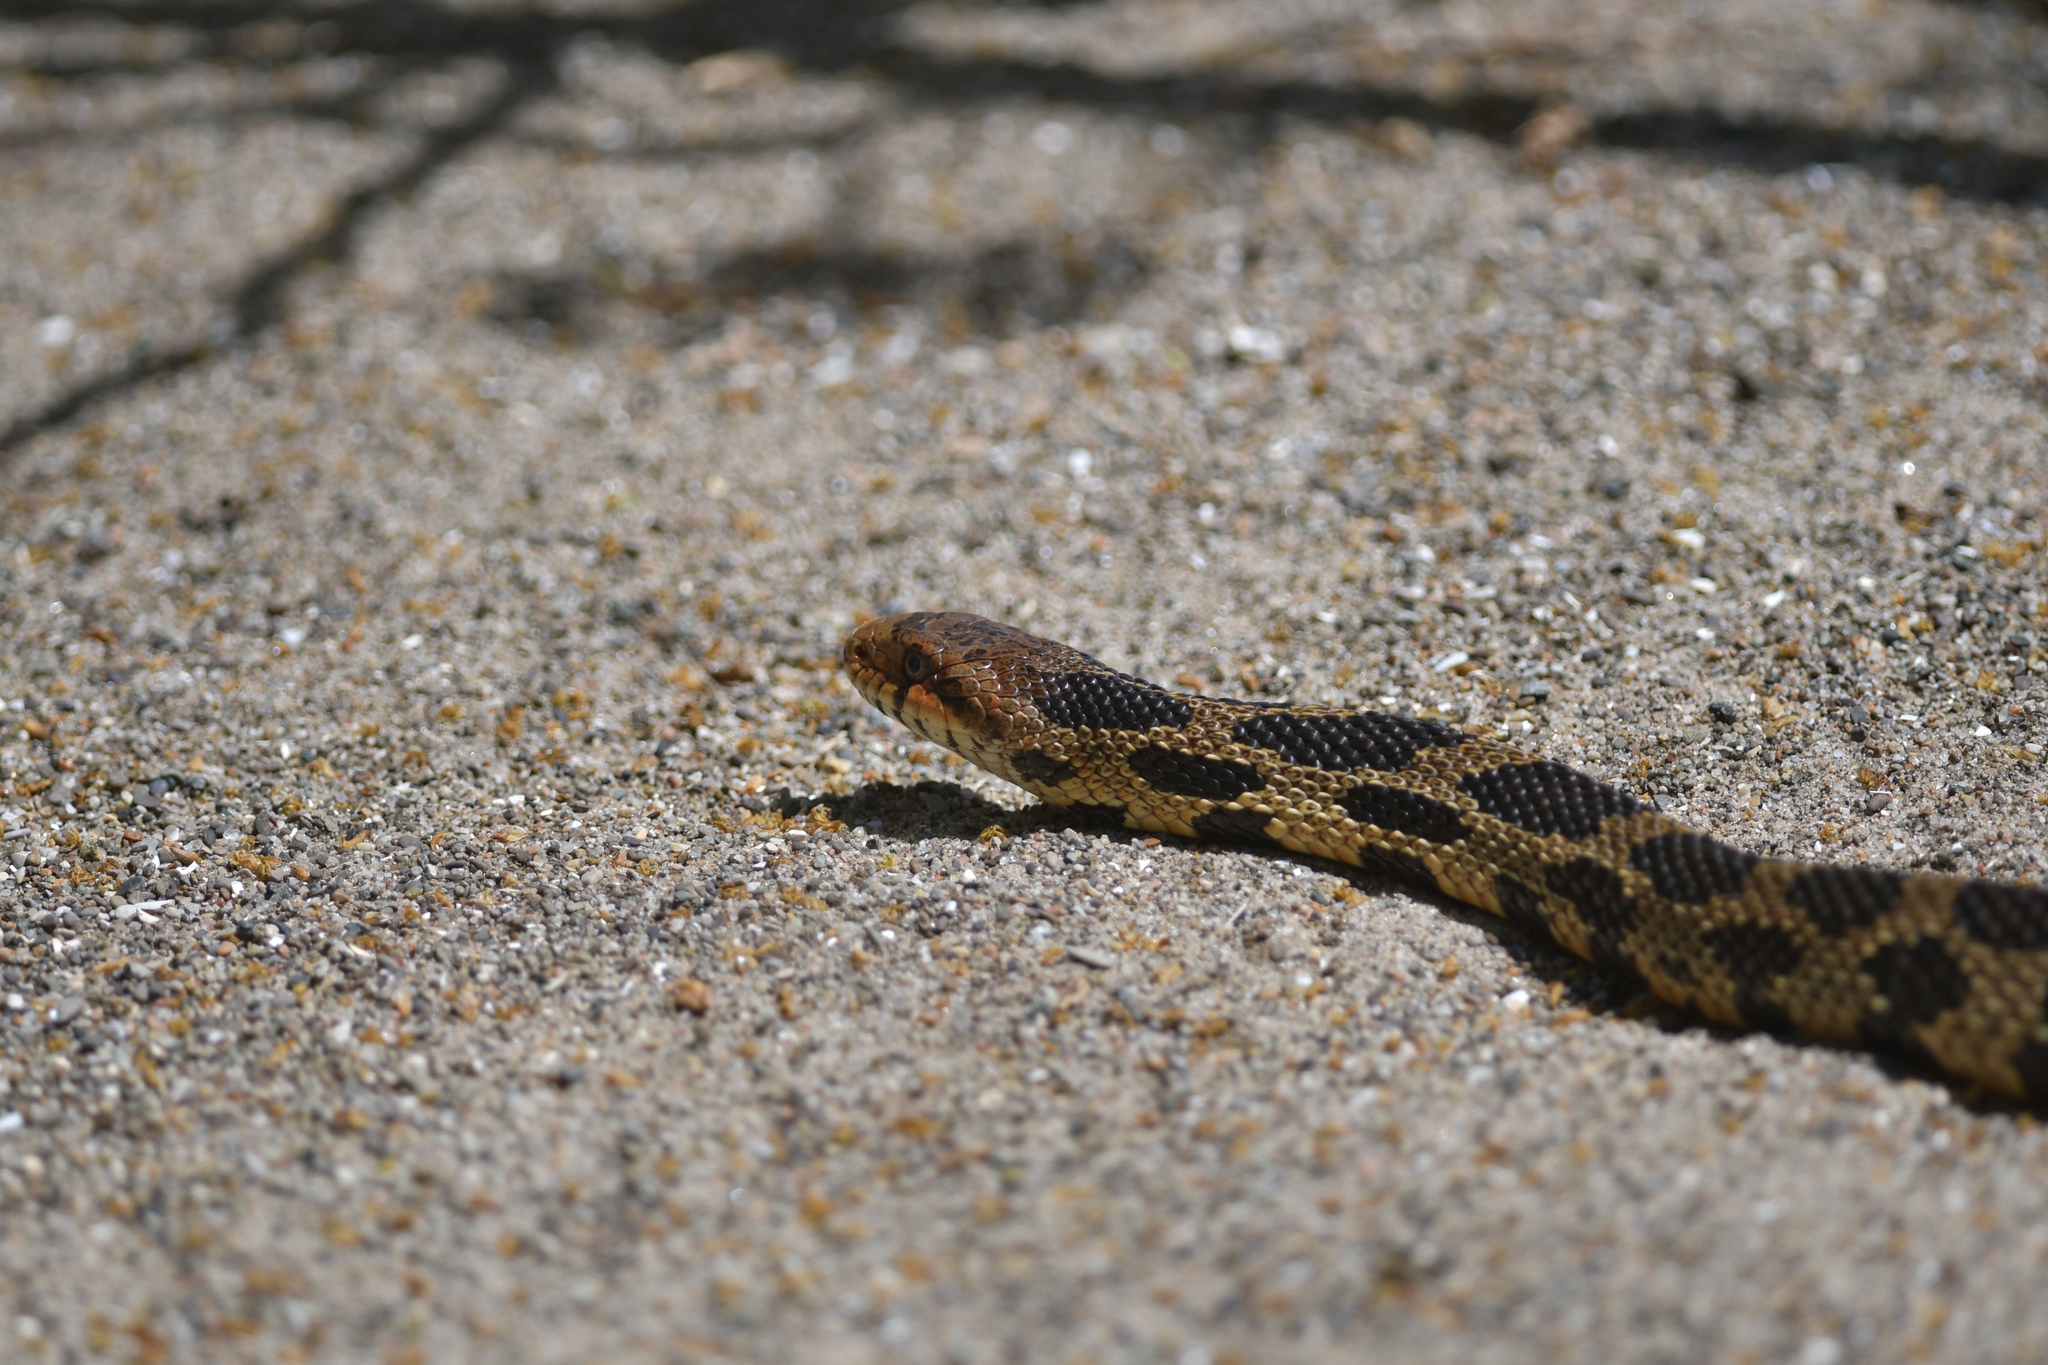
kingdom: Animalia
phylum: Chordata
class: Squamata
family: Colubridae
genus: Pantherophis
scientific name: Pantherophis vulpinus
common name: Eastern fox snake
